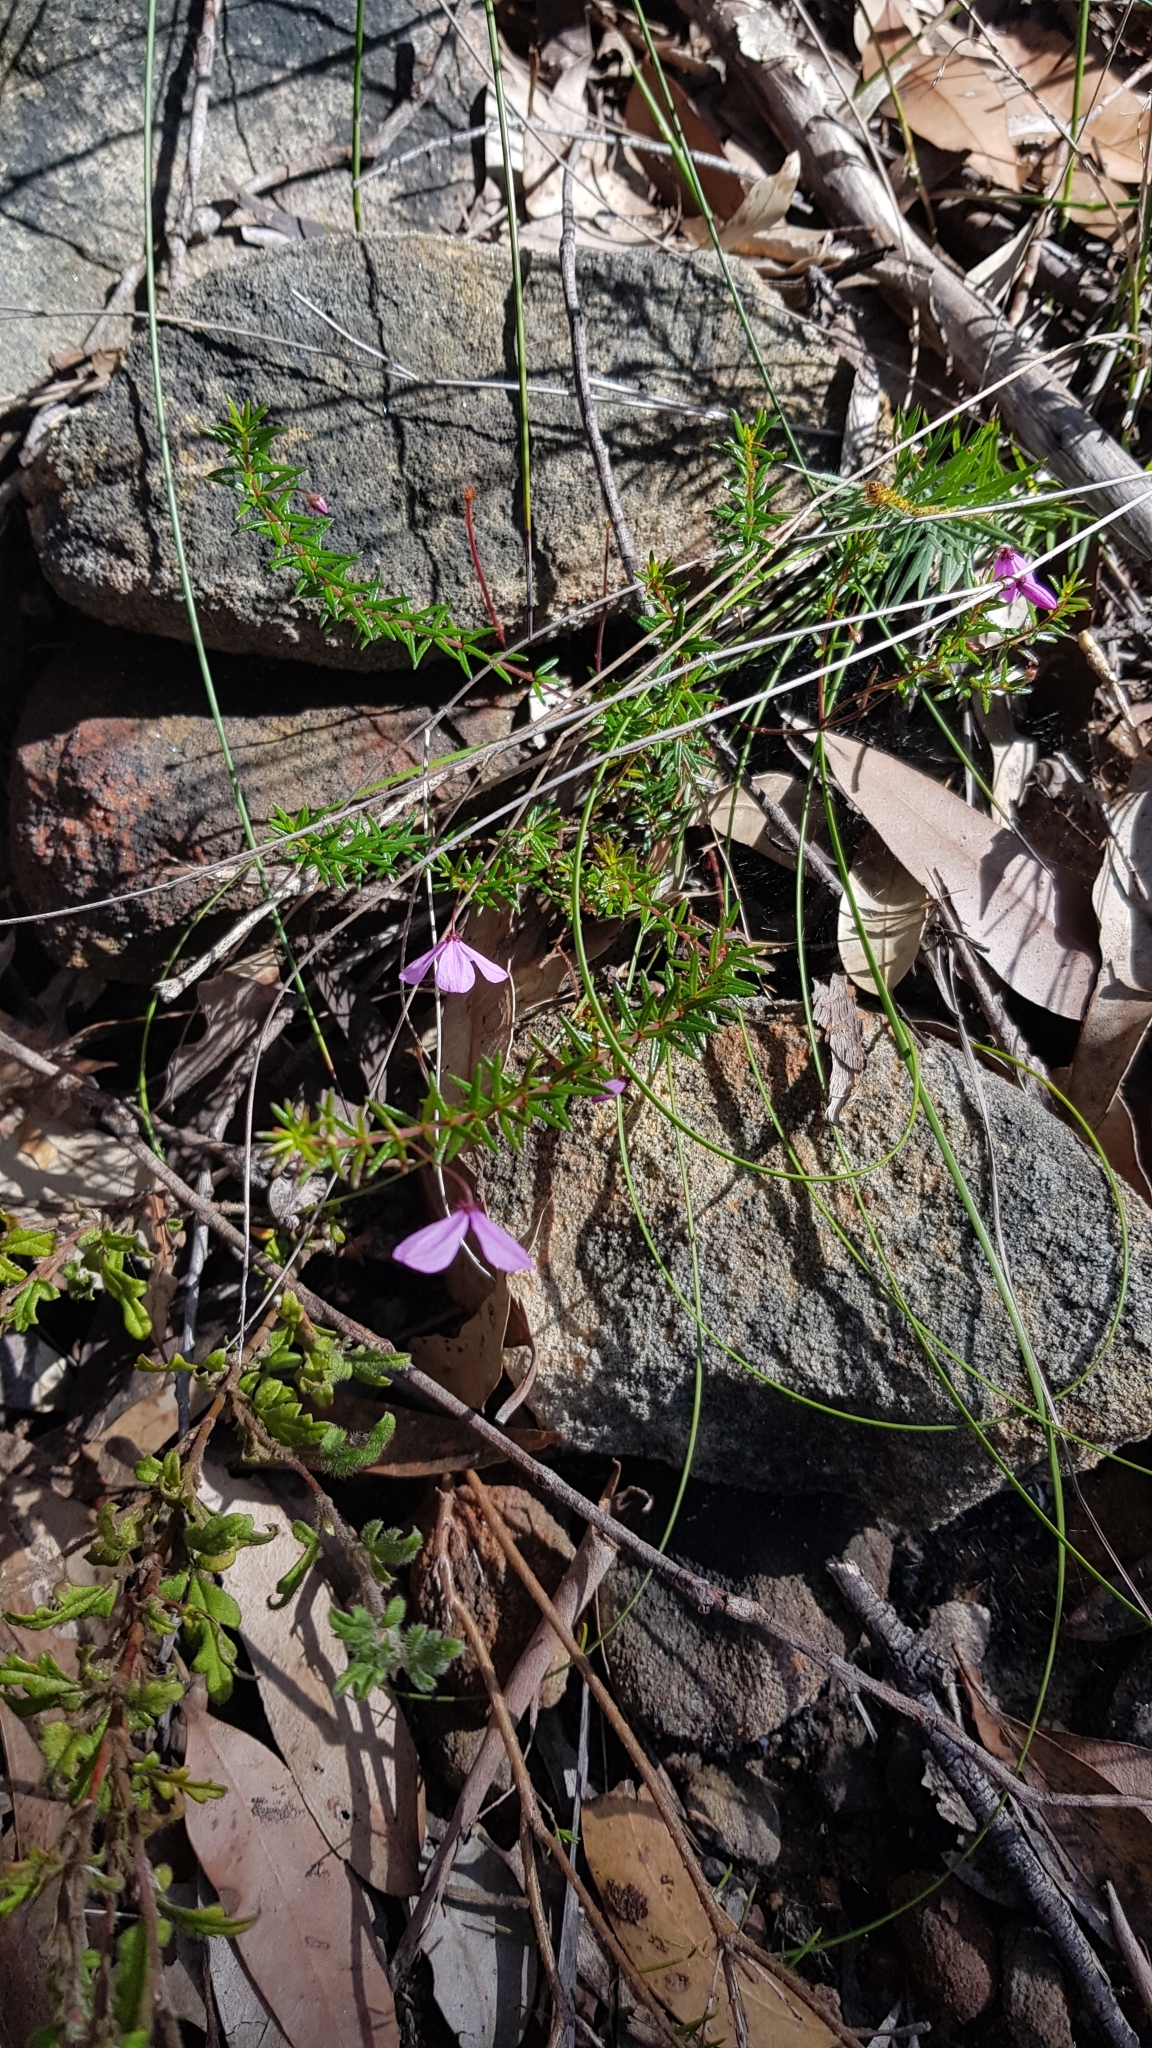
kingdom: Plantae
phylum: Tracheophyta
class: Magnoliopsida
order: Oxalidales
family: Elaeocarpaceae
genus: Tetratheca
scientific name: Tetratheca ericifolia
